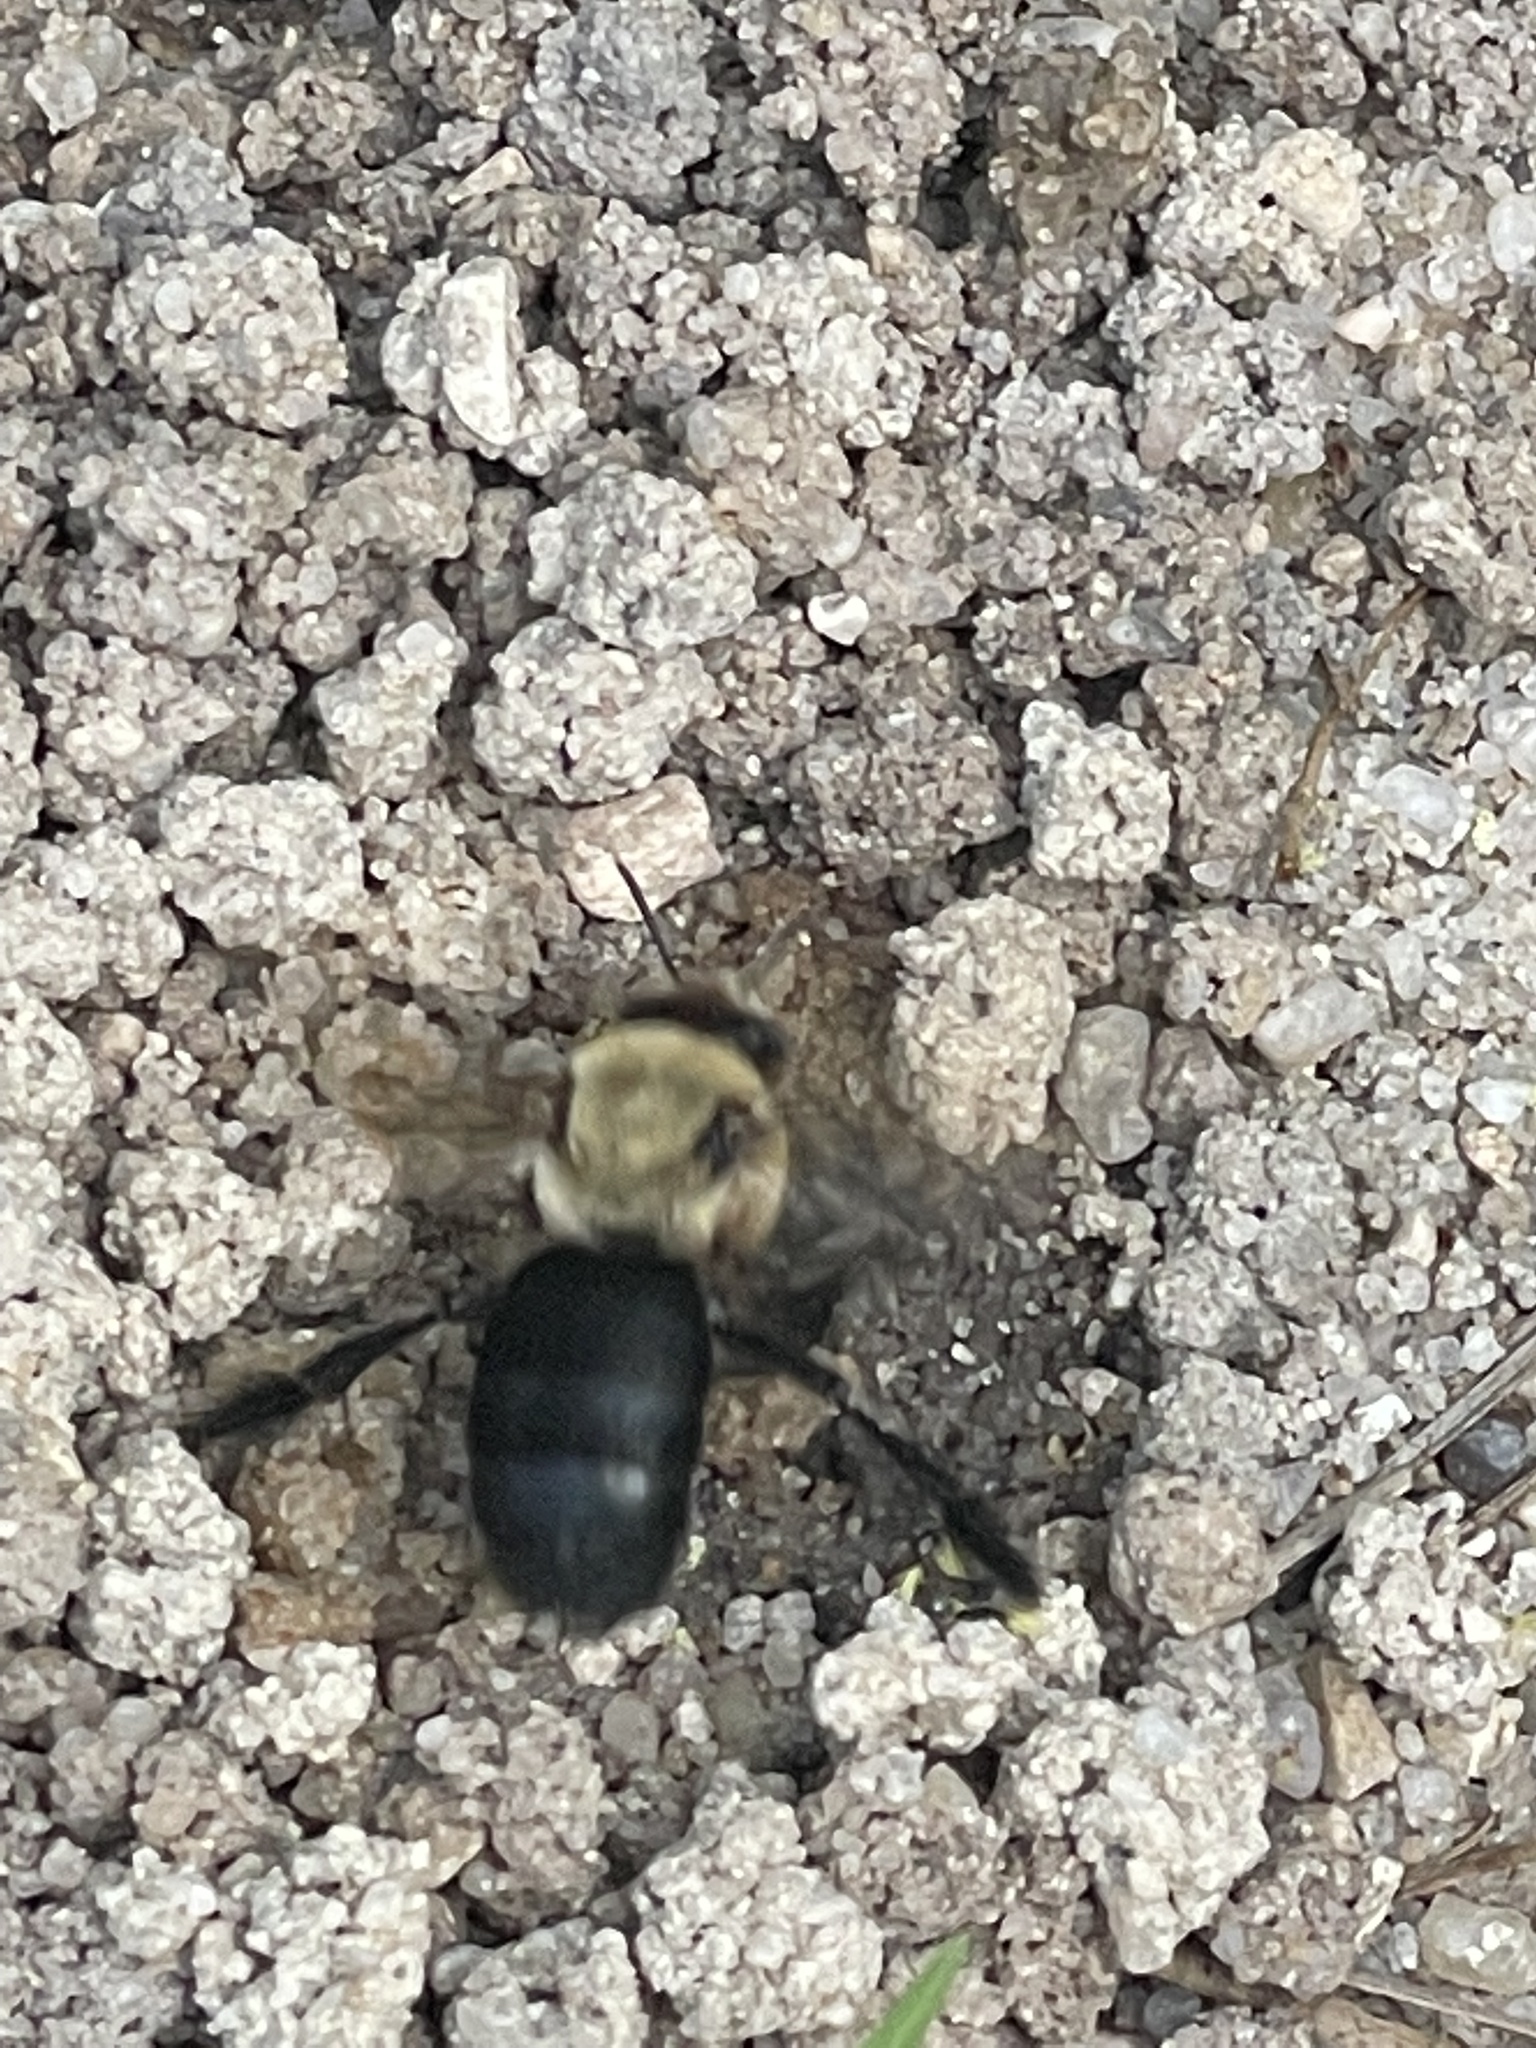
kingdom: Animalia
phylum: Arthropoda
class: Insecta
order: Hymenoptera
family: Apidae
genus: Ptilothrix
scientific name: Ptilothrix bombiformis
